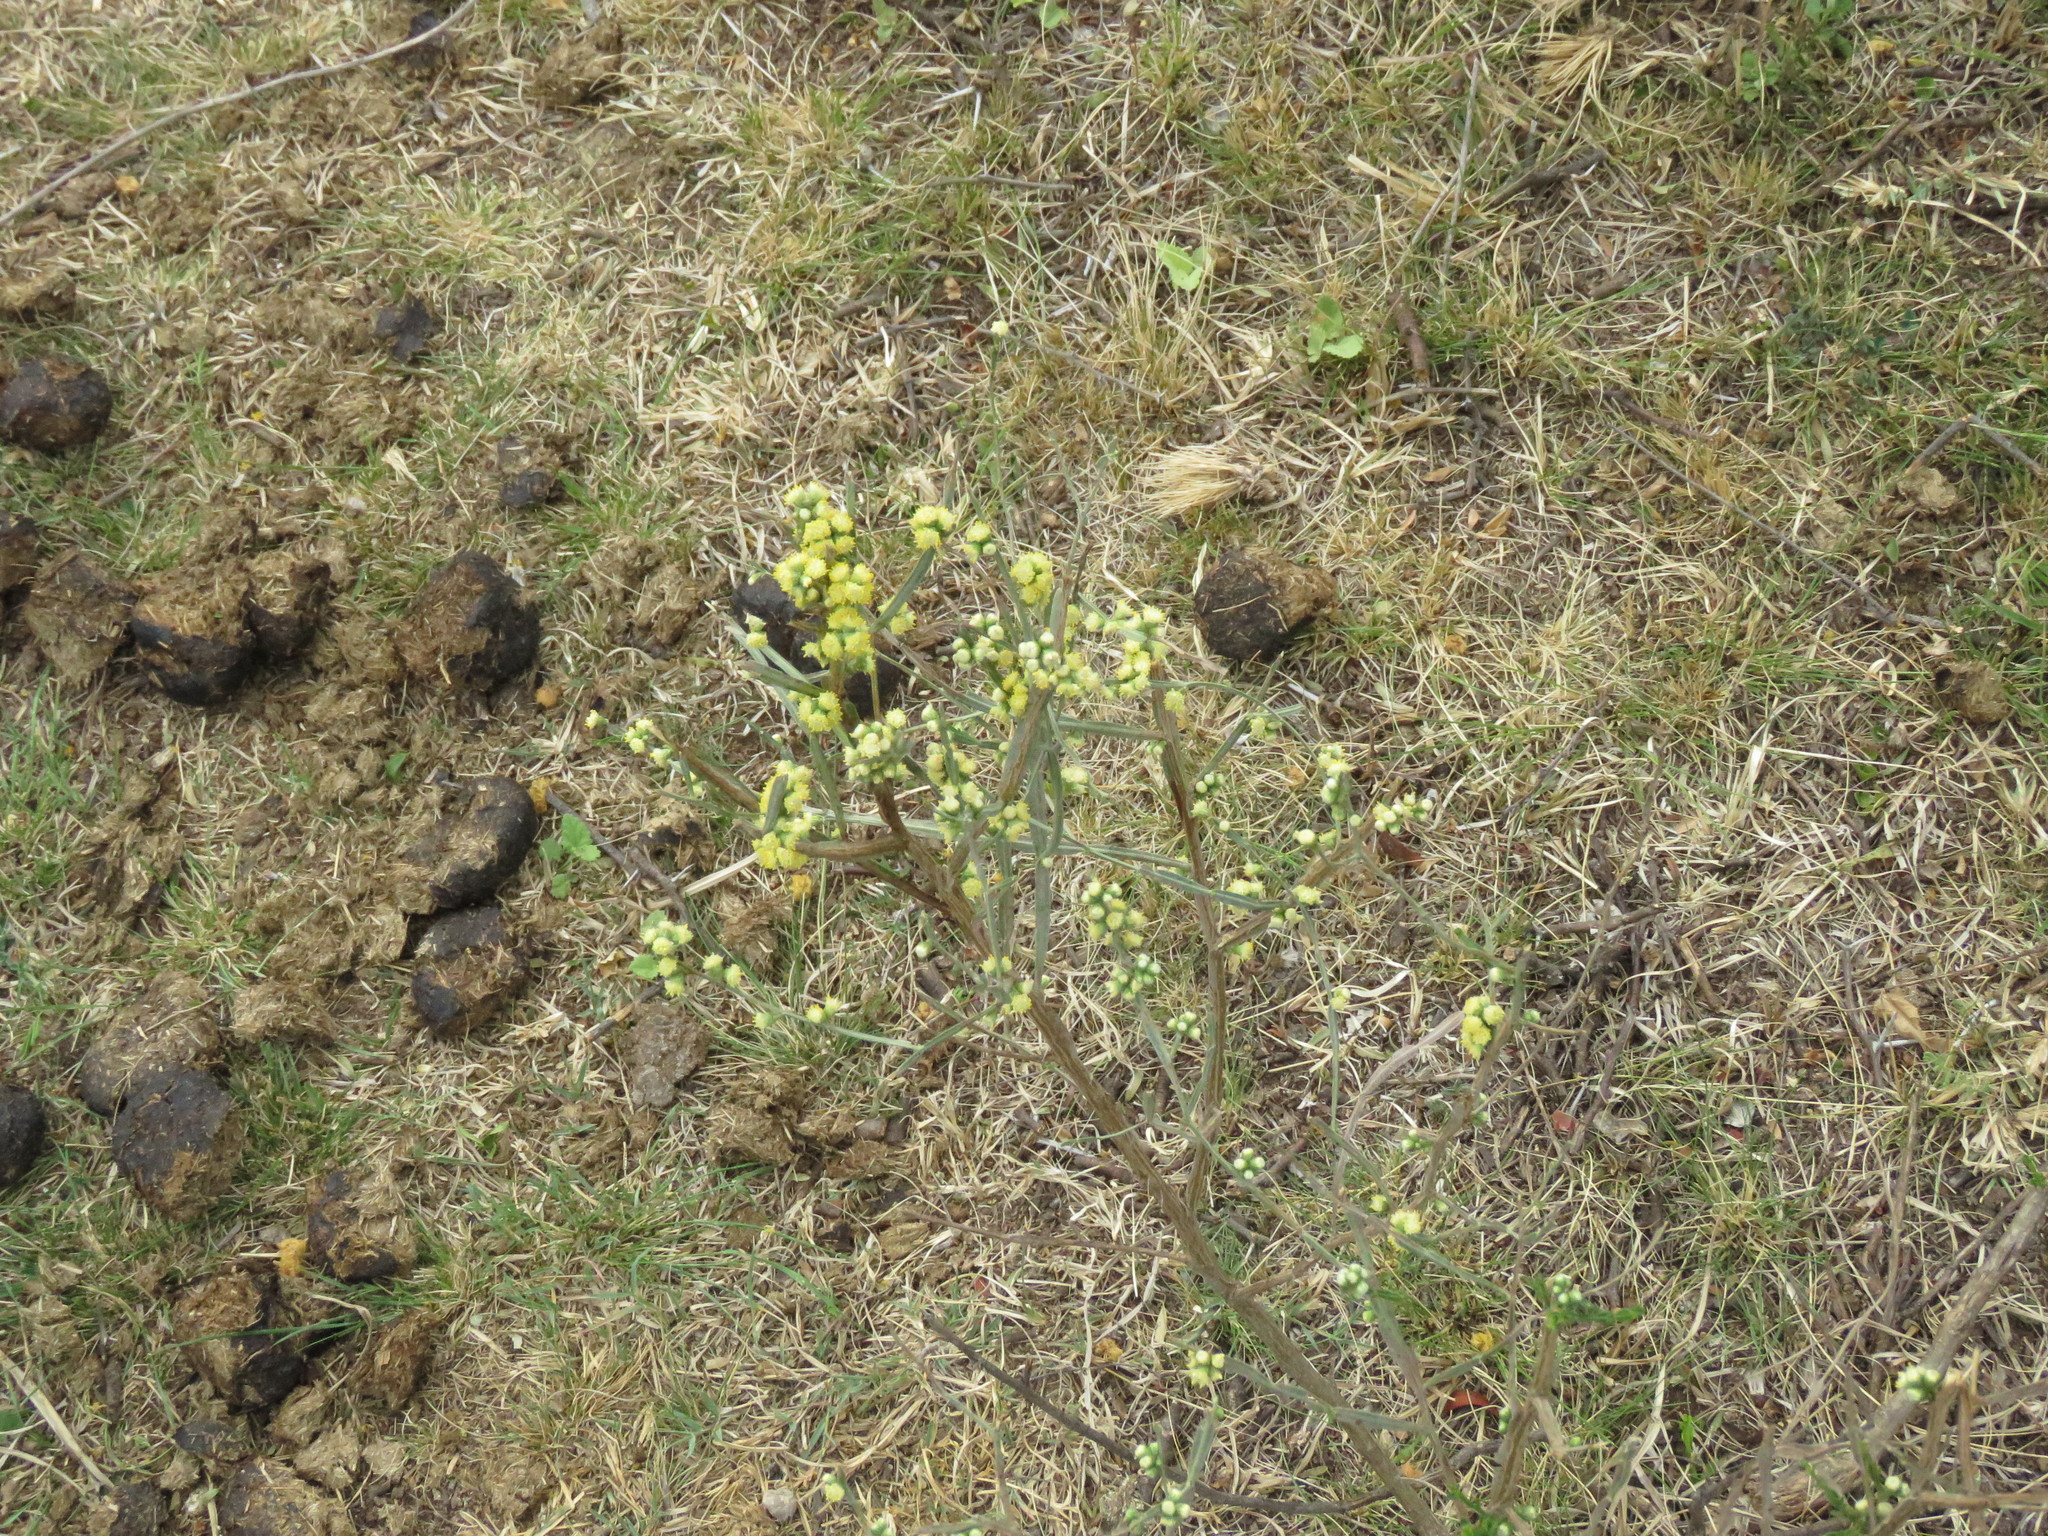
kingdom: Plantae
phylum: Tracheophyta
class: Magnoliopsida
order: Asterales
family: Asteraceae
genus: Baccharis
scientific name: Baccharis articulata
